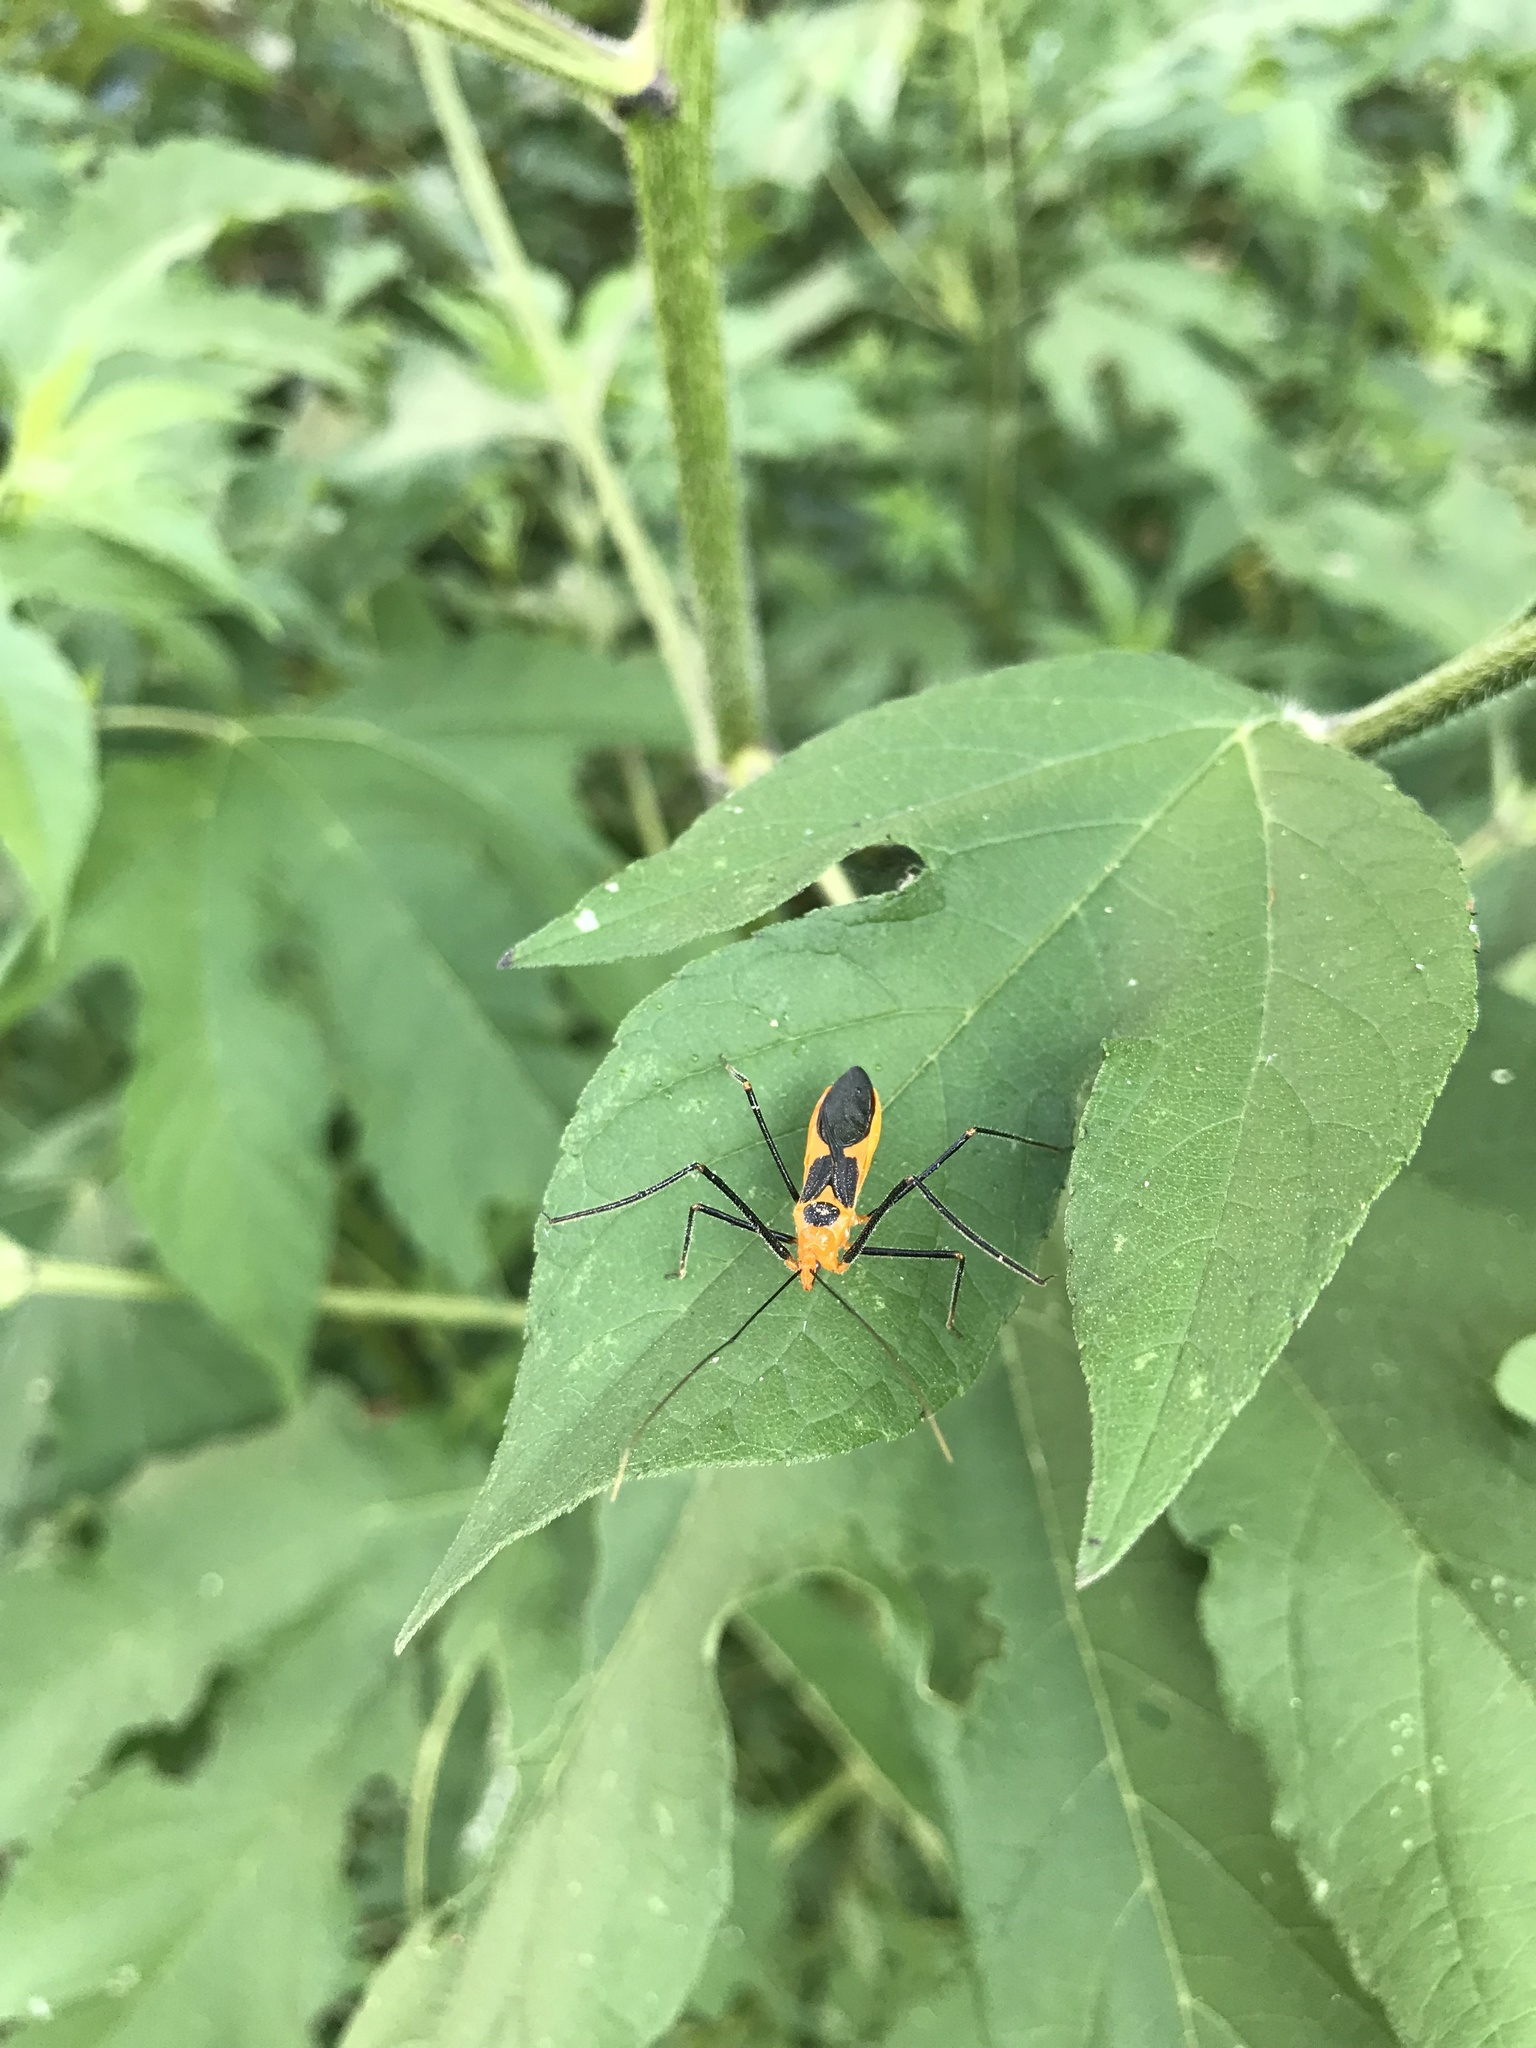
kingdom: Animalia
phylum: Arthropoda
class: Insecta
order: Hemiptera
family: Reduviidae
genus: Zelus
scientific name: Zelus longipes
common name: Milkweed assassin bug
